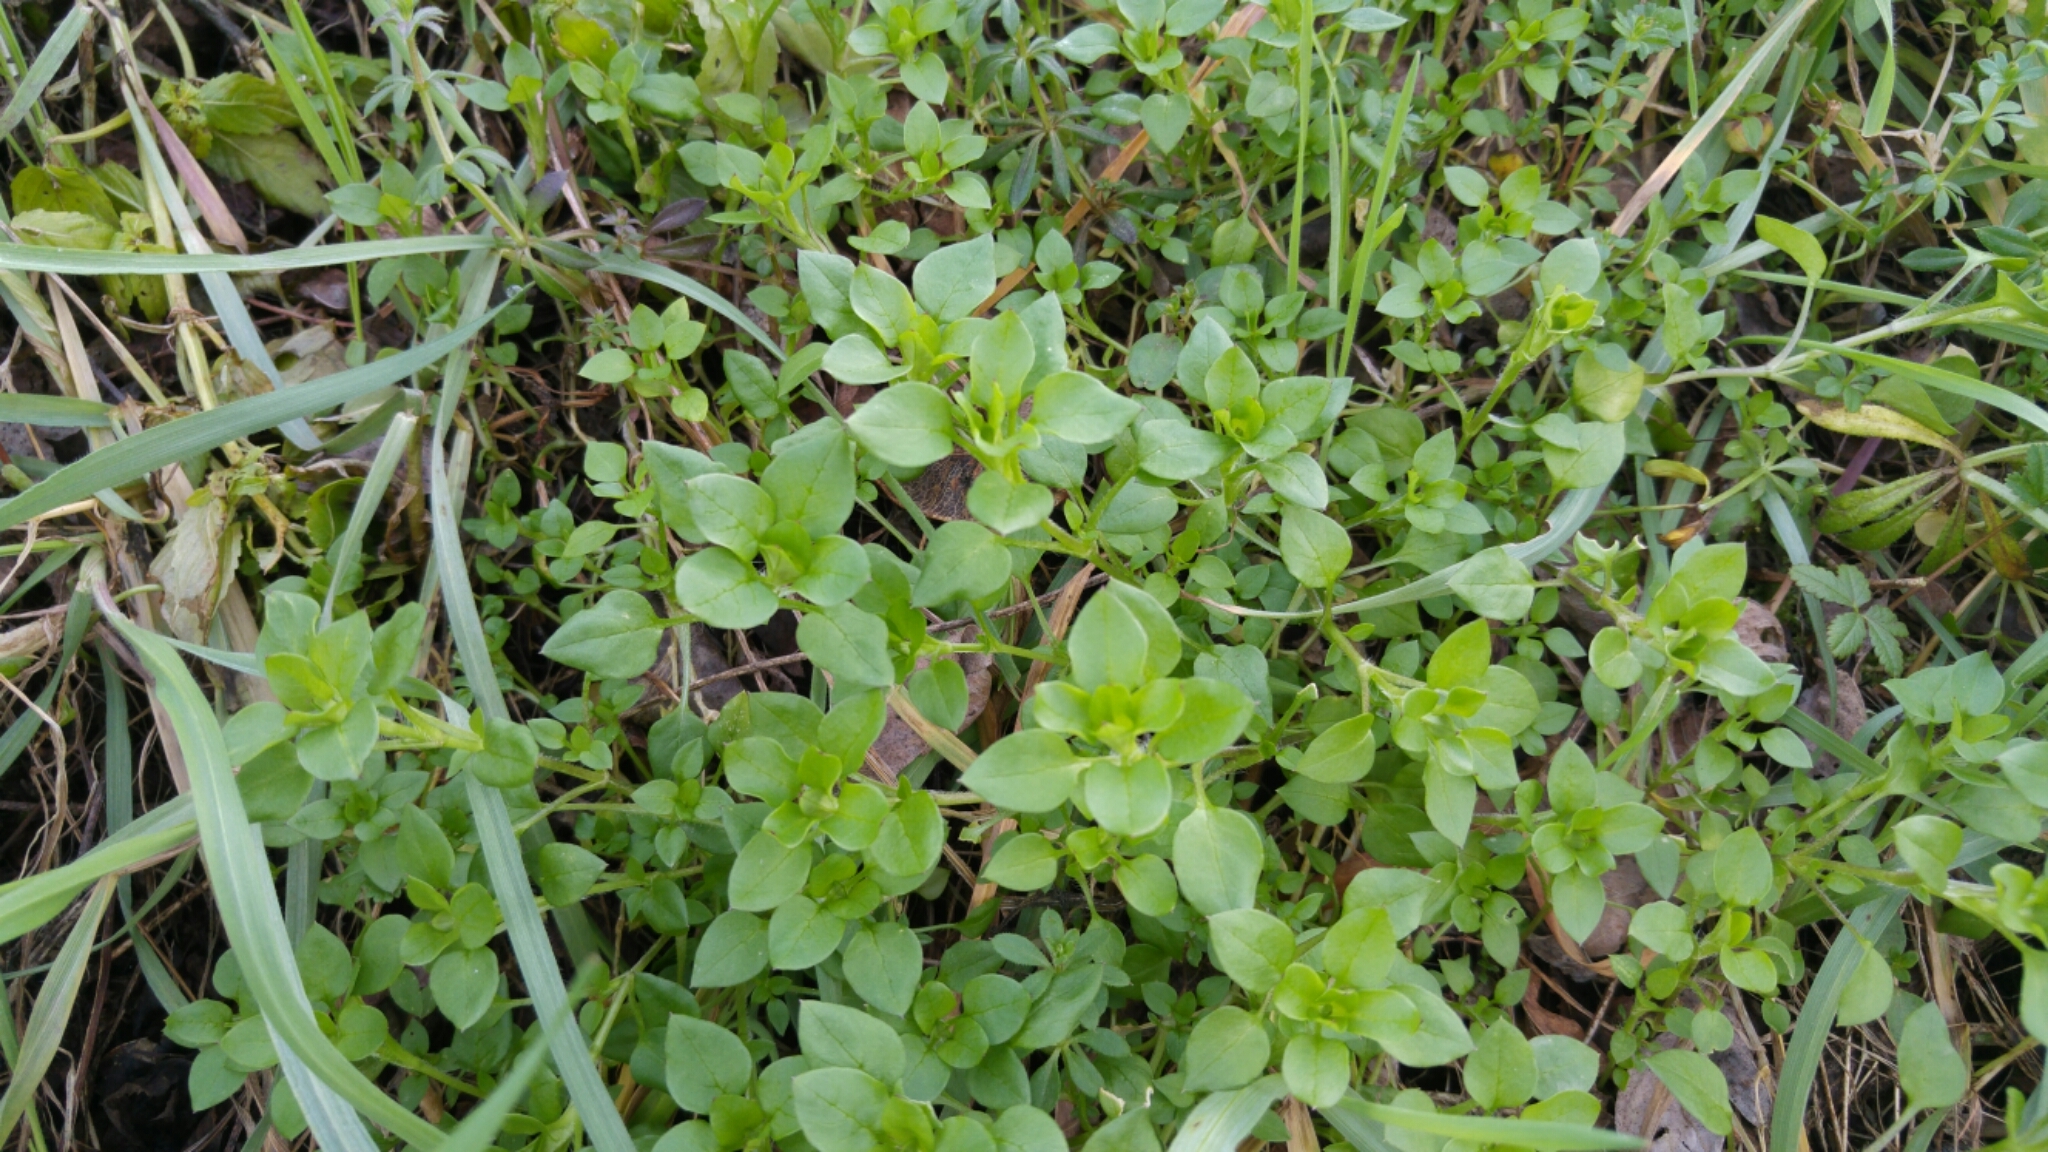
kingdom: Plantae
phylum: Tracheophyta
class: Magnoliopsida
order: Caryophyllales
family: Caryophyllaceae
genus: Stellaria
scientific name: Stellaria media
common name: Common chickweed
